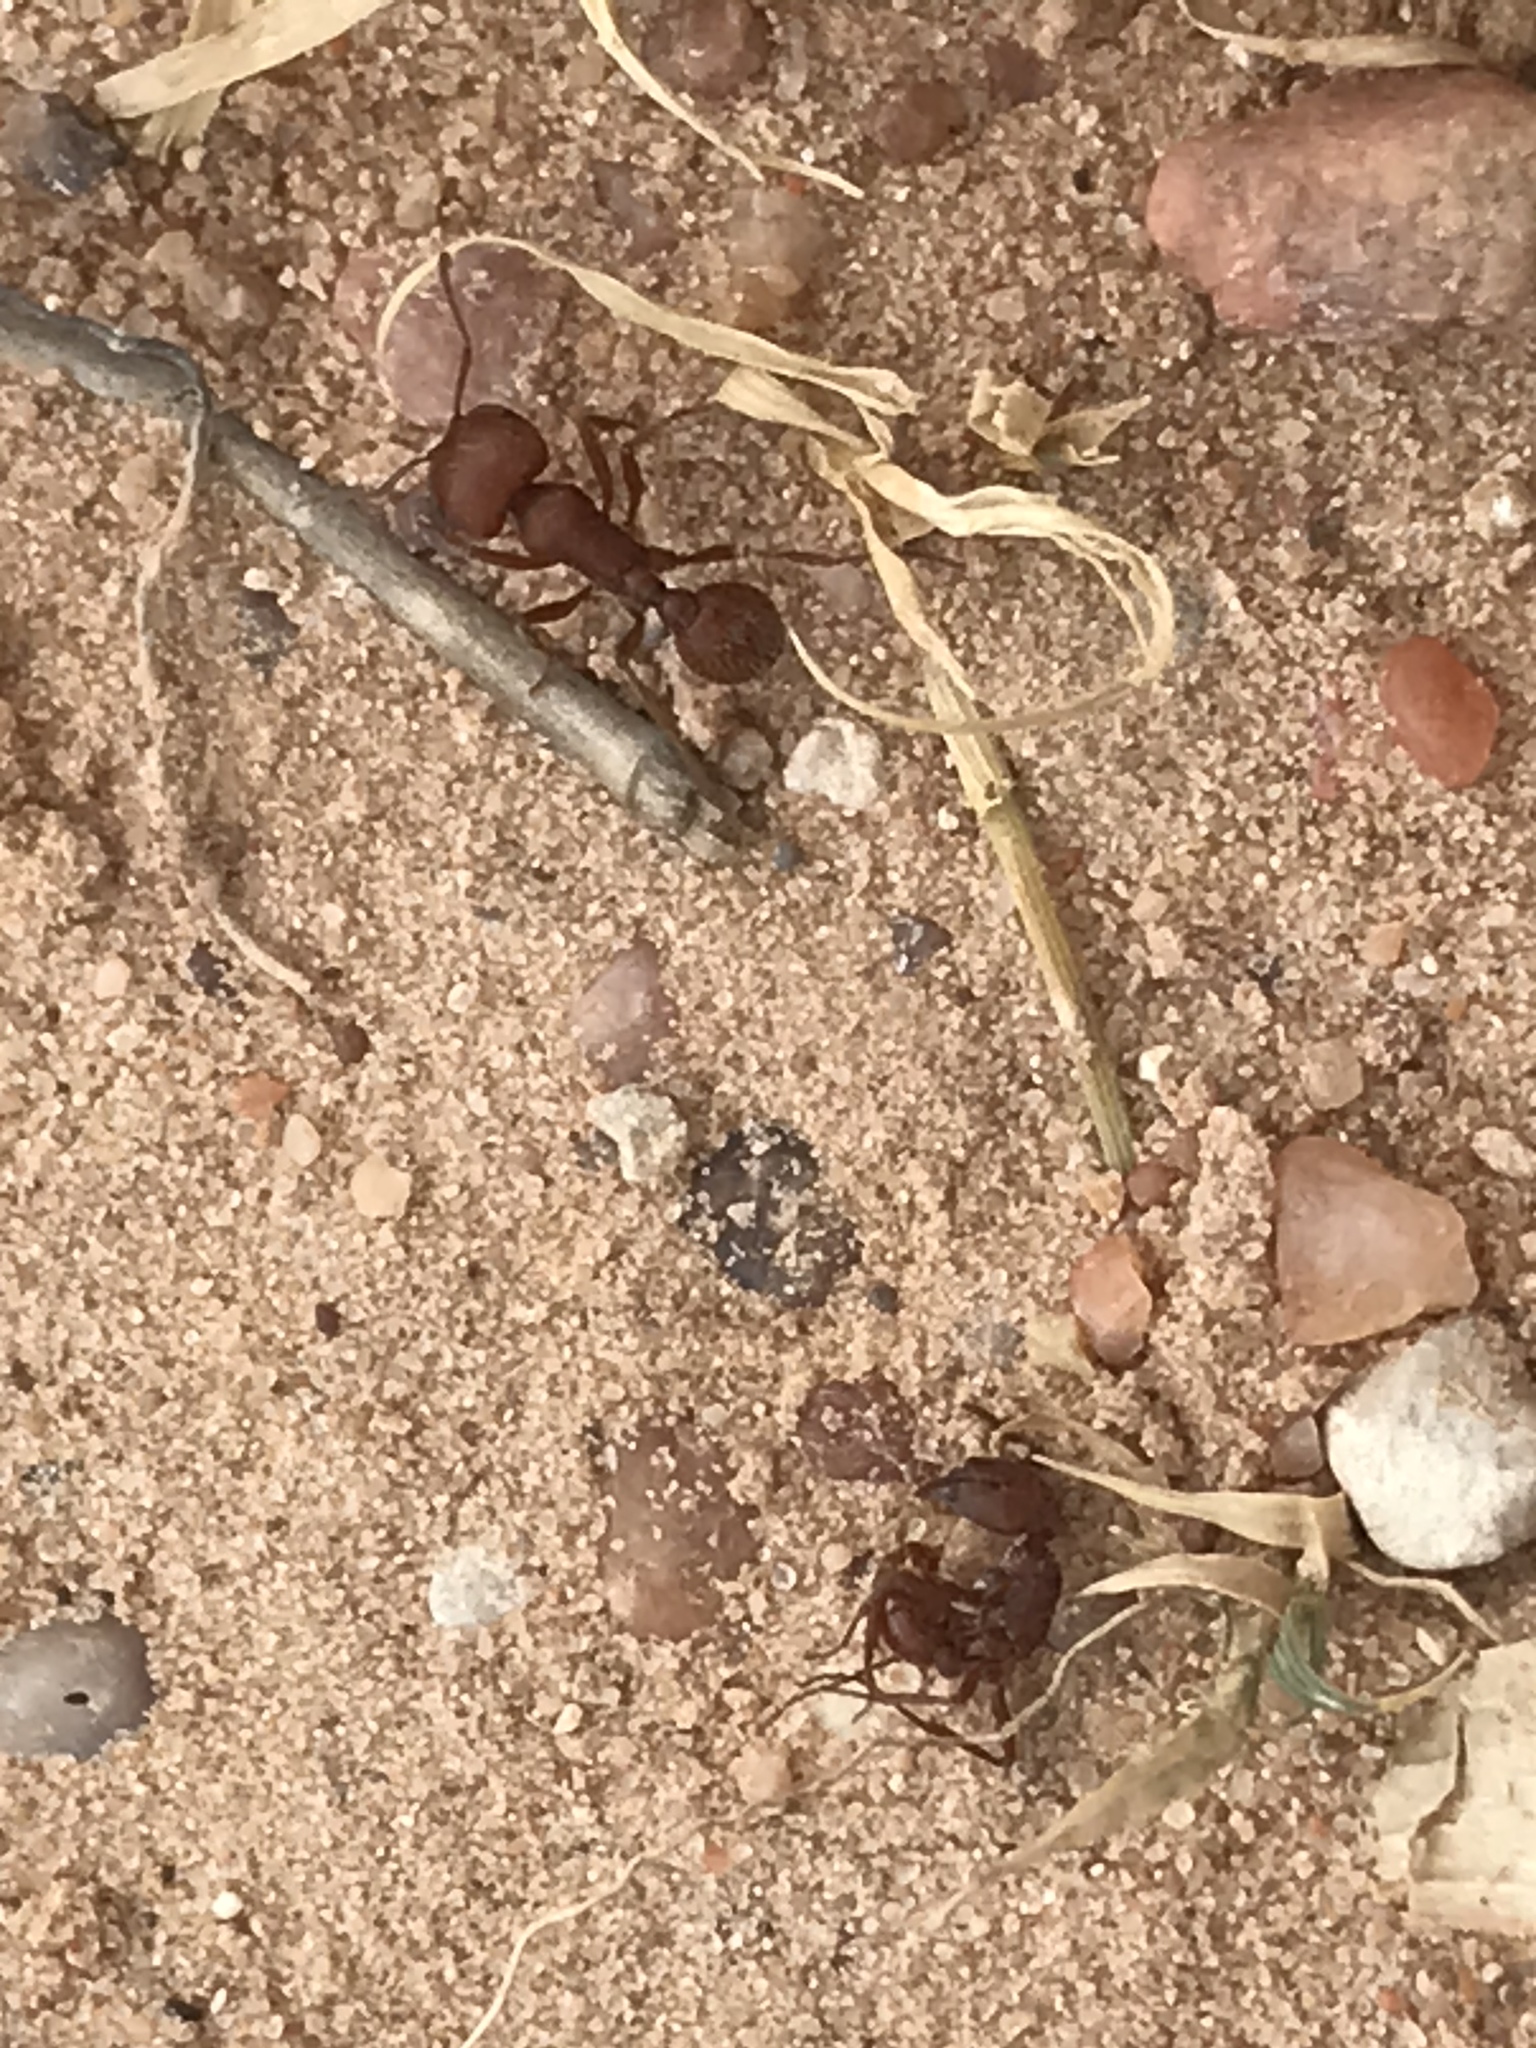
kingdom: Animalia
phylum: Arthropoda
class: Insecta
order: Hymenoptera
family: Formicidae
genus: Pogonomyrmex
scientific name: Pogonomyrmex barbatus
